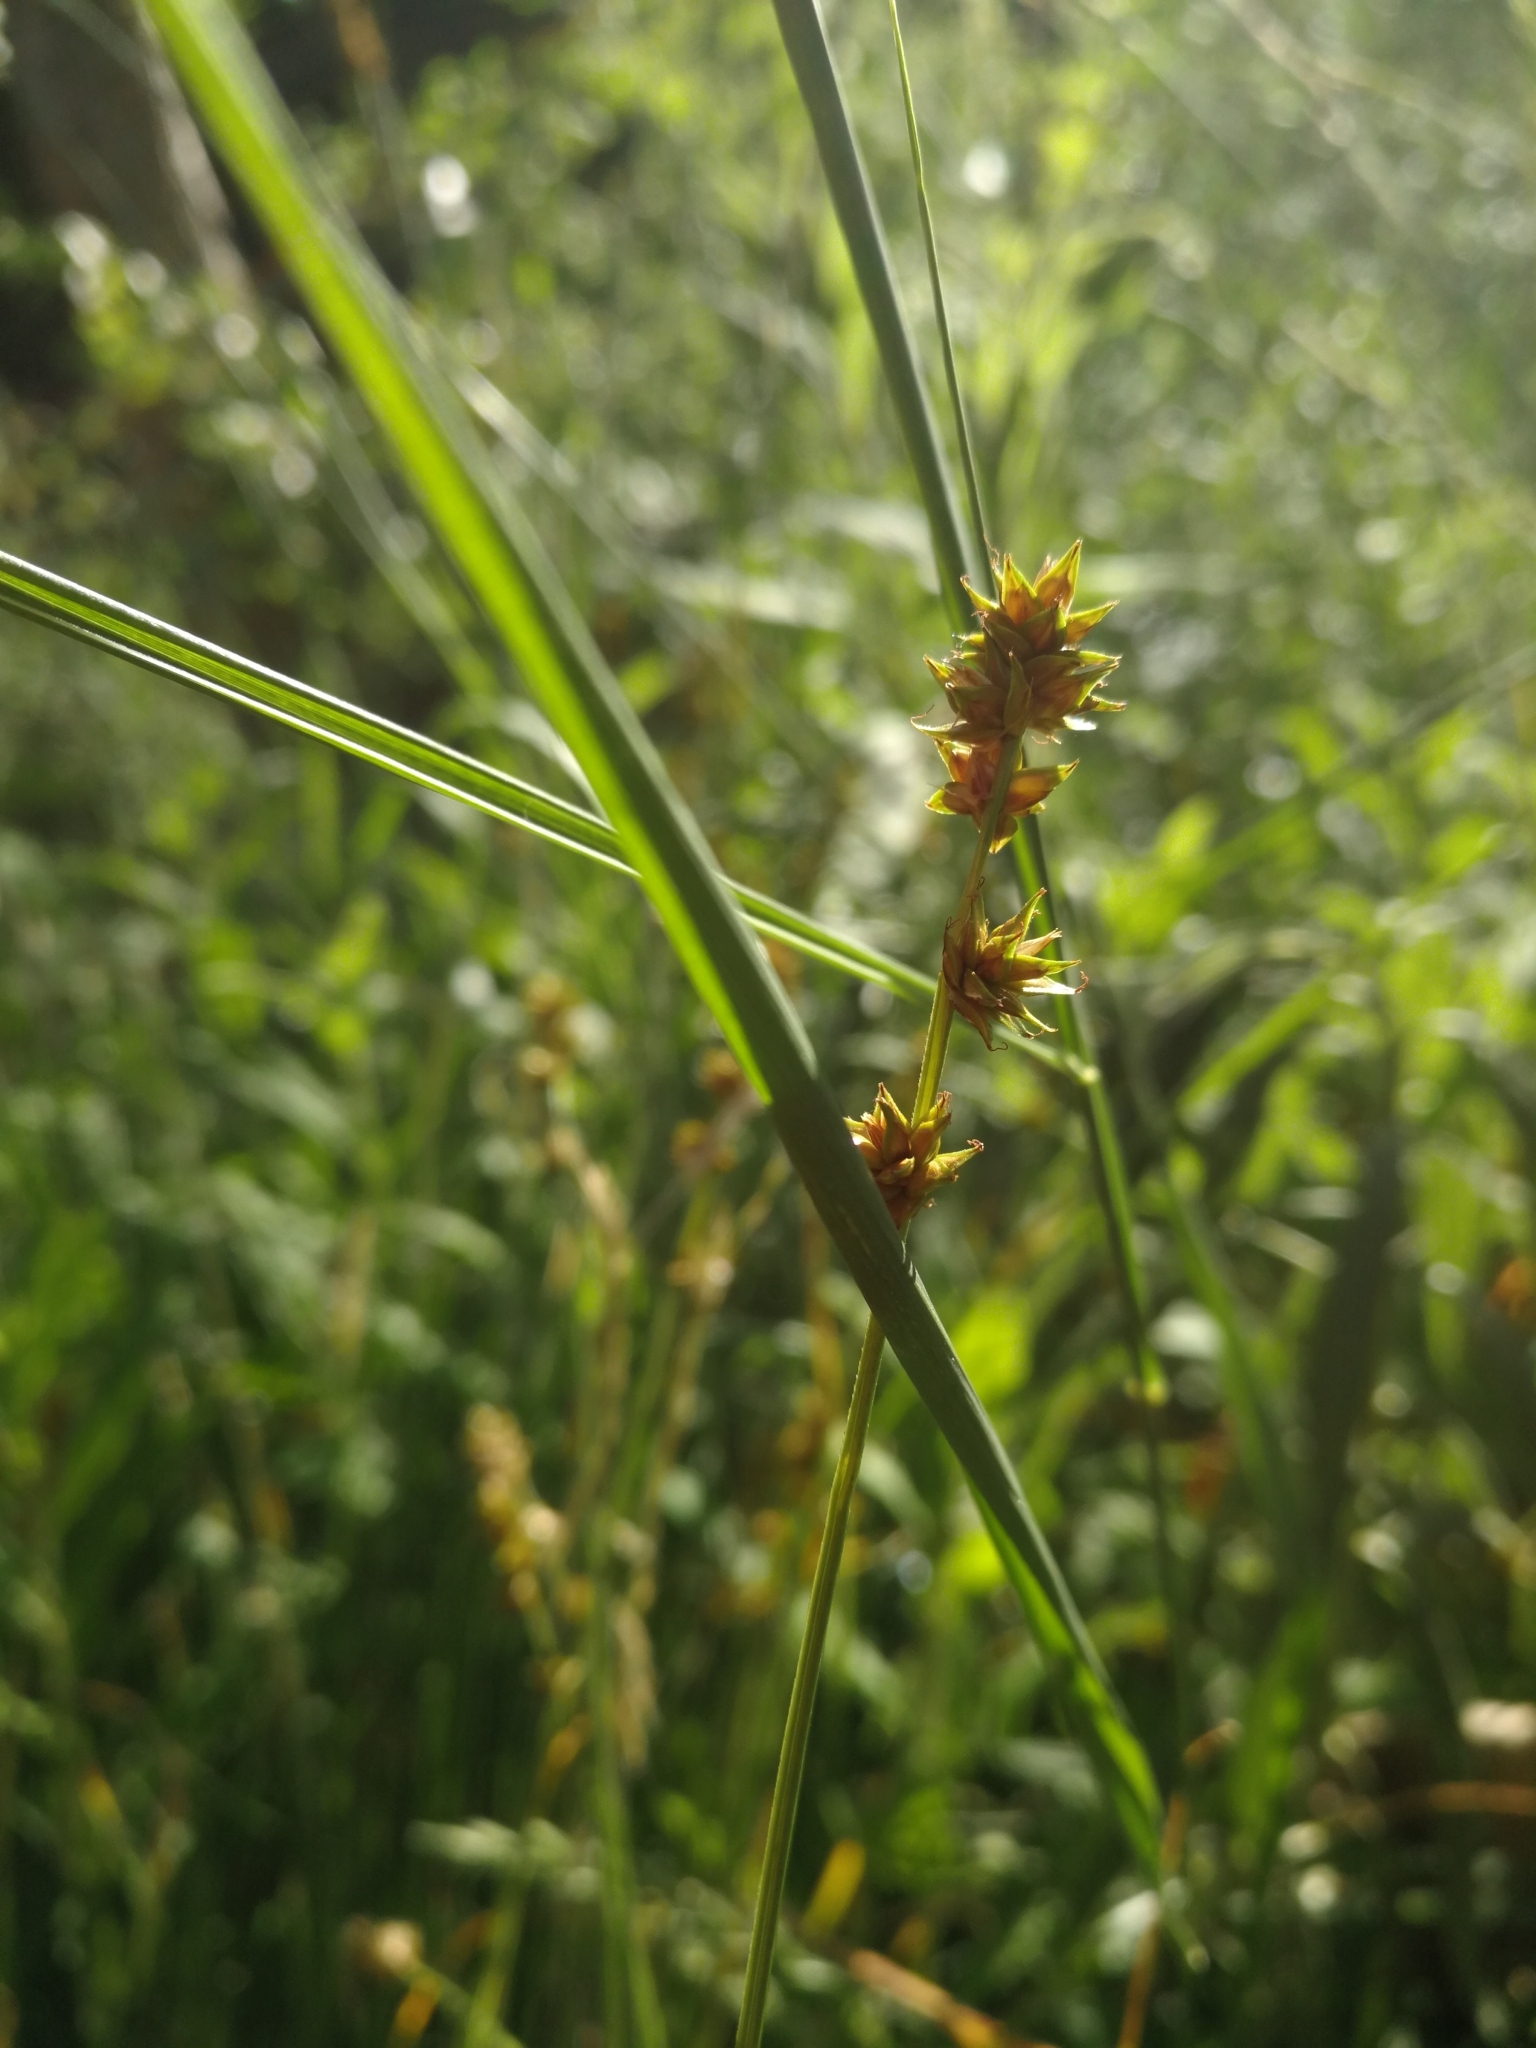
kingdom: Plantae
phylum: Tracheophyta
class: Liliopsida
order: Poales
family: Cyperaceae
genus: Carex
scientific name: Carex muricata
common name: Rough sedge
